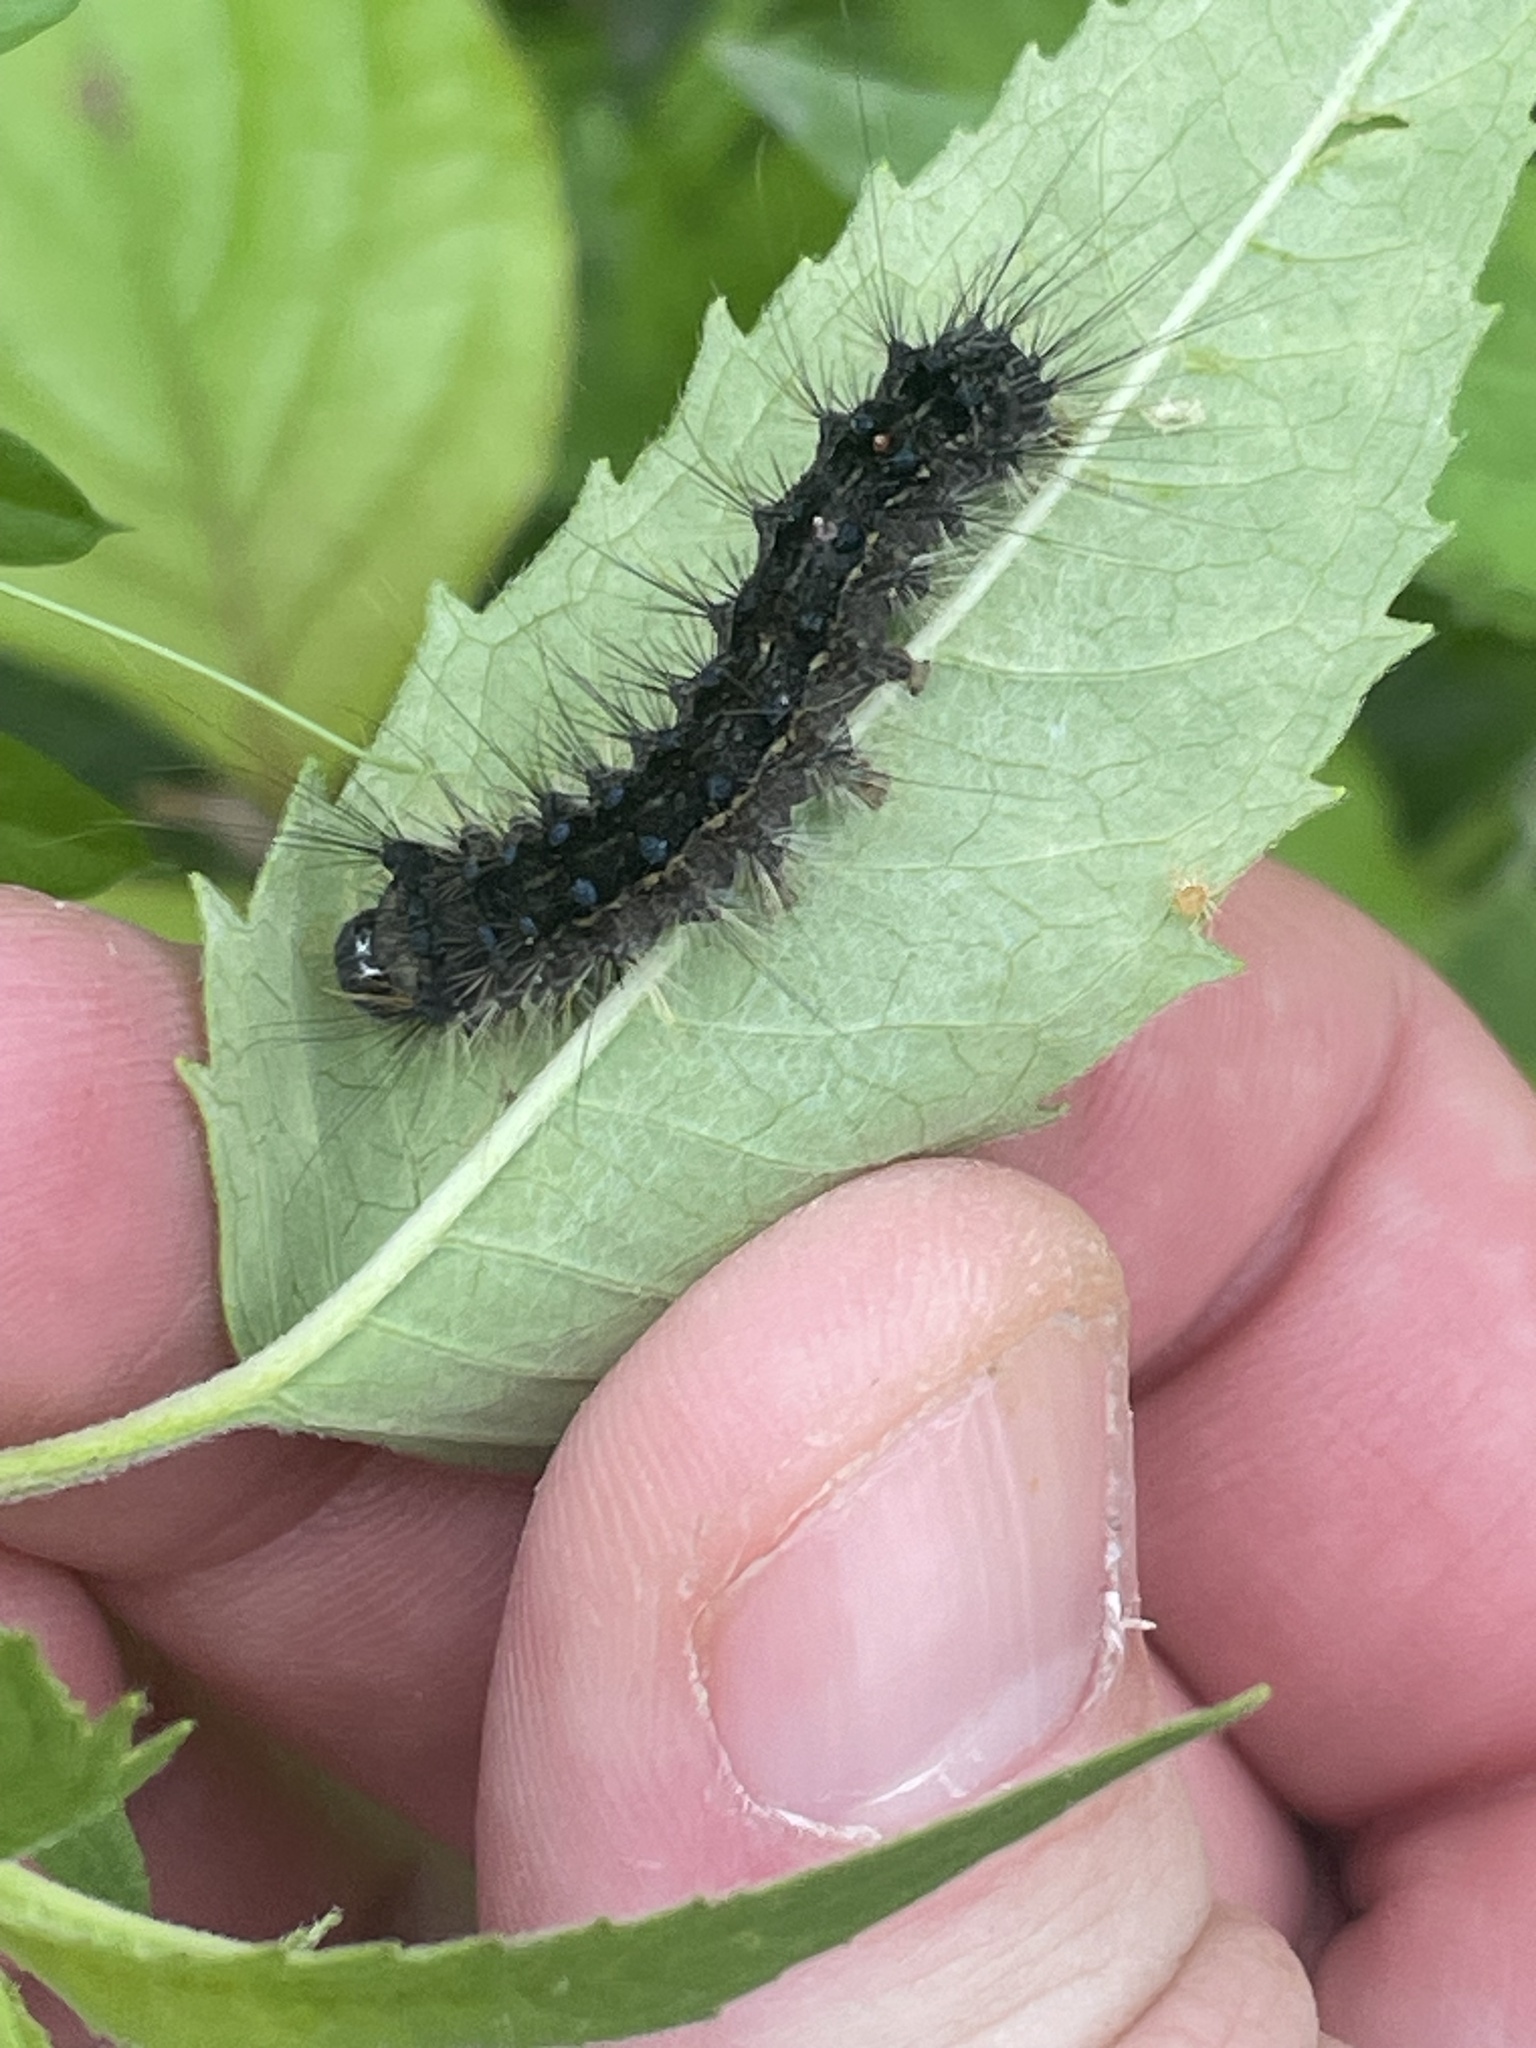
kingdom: Animalia
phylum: Arthropoda
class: Insecta
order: Lepidoptera
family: Erebidae
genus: Lymantria
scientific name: Lymantria dispar
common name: Gypsy moth
